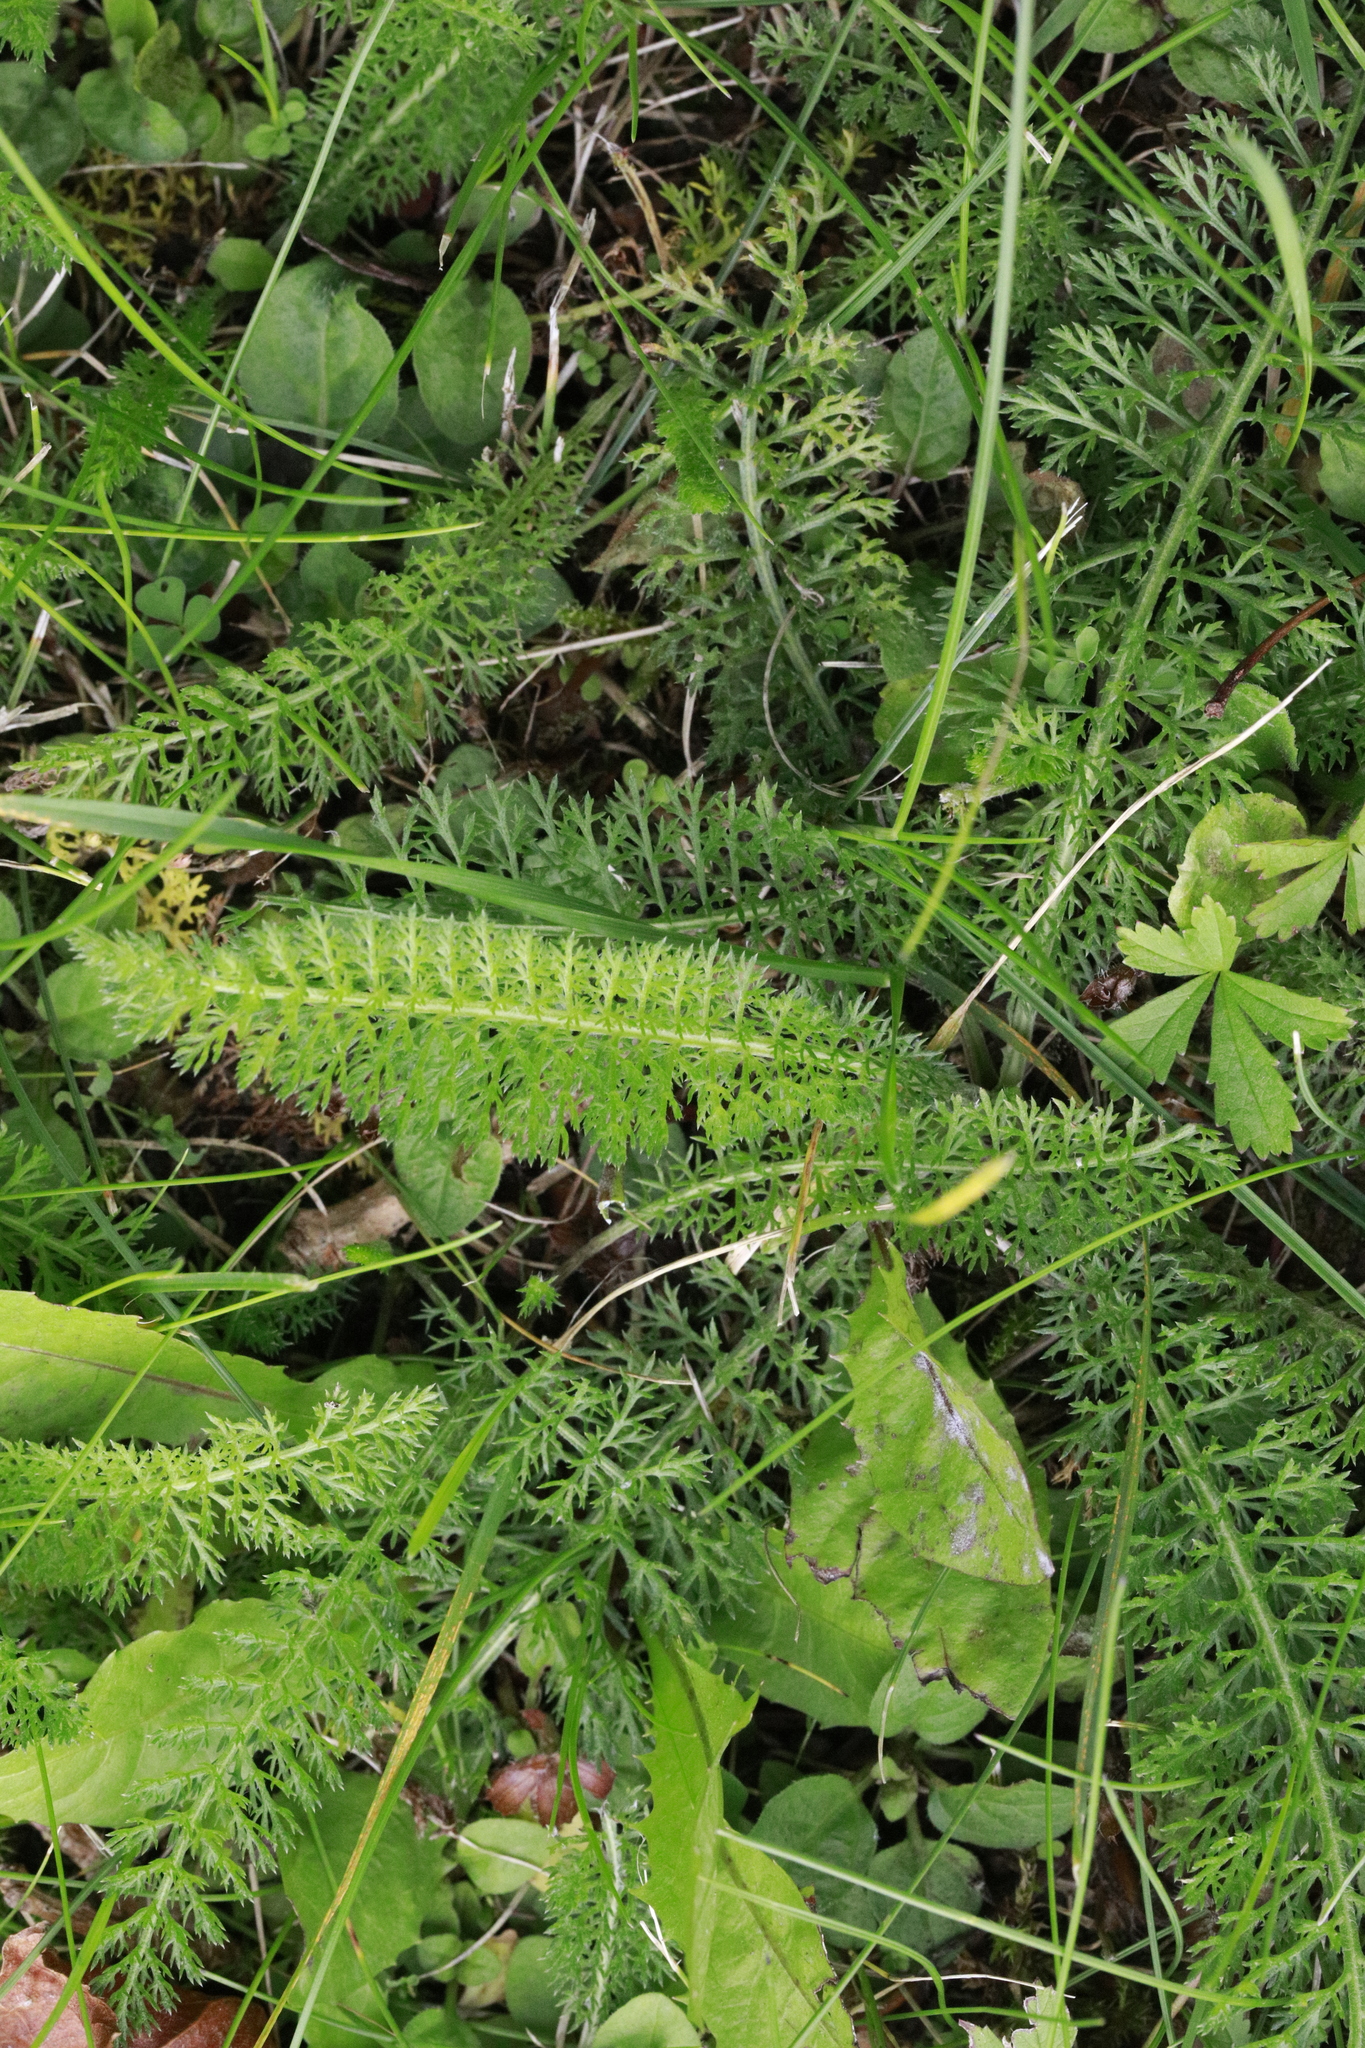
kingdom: Plantae
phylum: Tracheophyta
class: Magnoliopsida
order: Asterales
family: Asteraceae
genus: Achillea
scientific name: Achillea millefolium
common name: Yarrow
